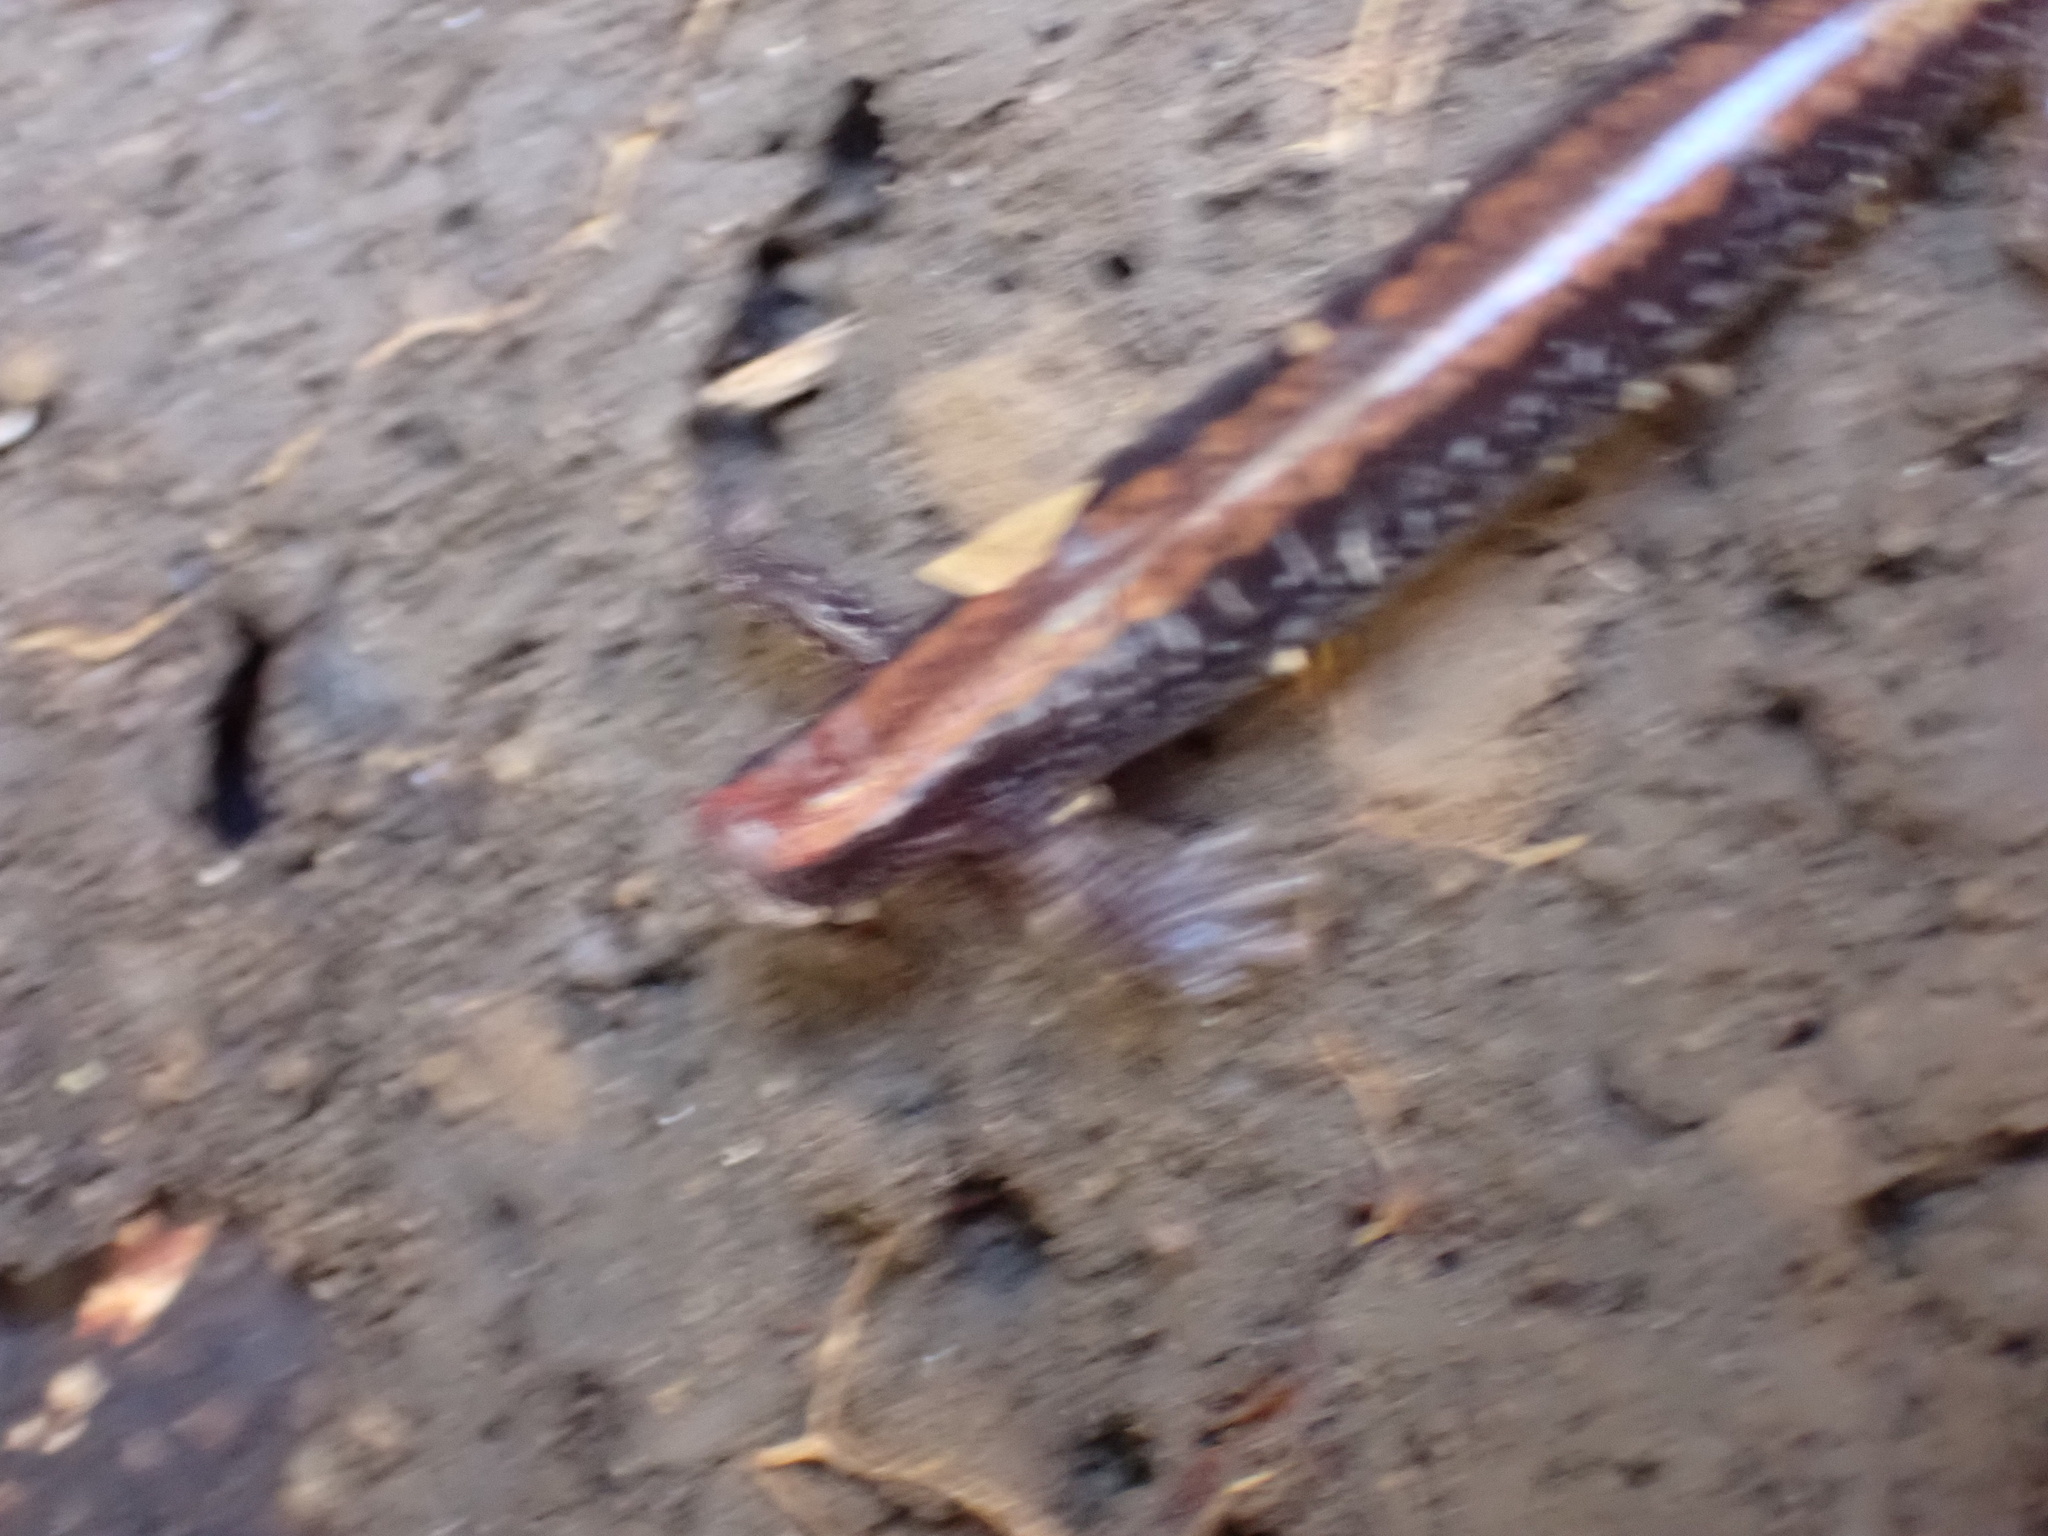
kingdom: Animalia
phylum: Chordata
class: Amphibia
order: Caudata
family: Plethodontidae
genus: Plethodon
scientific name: Plethodon cinereus
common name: Redback salamander
